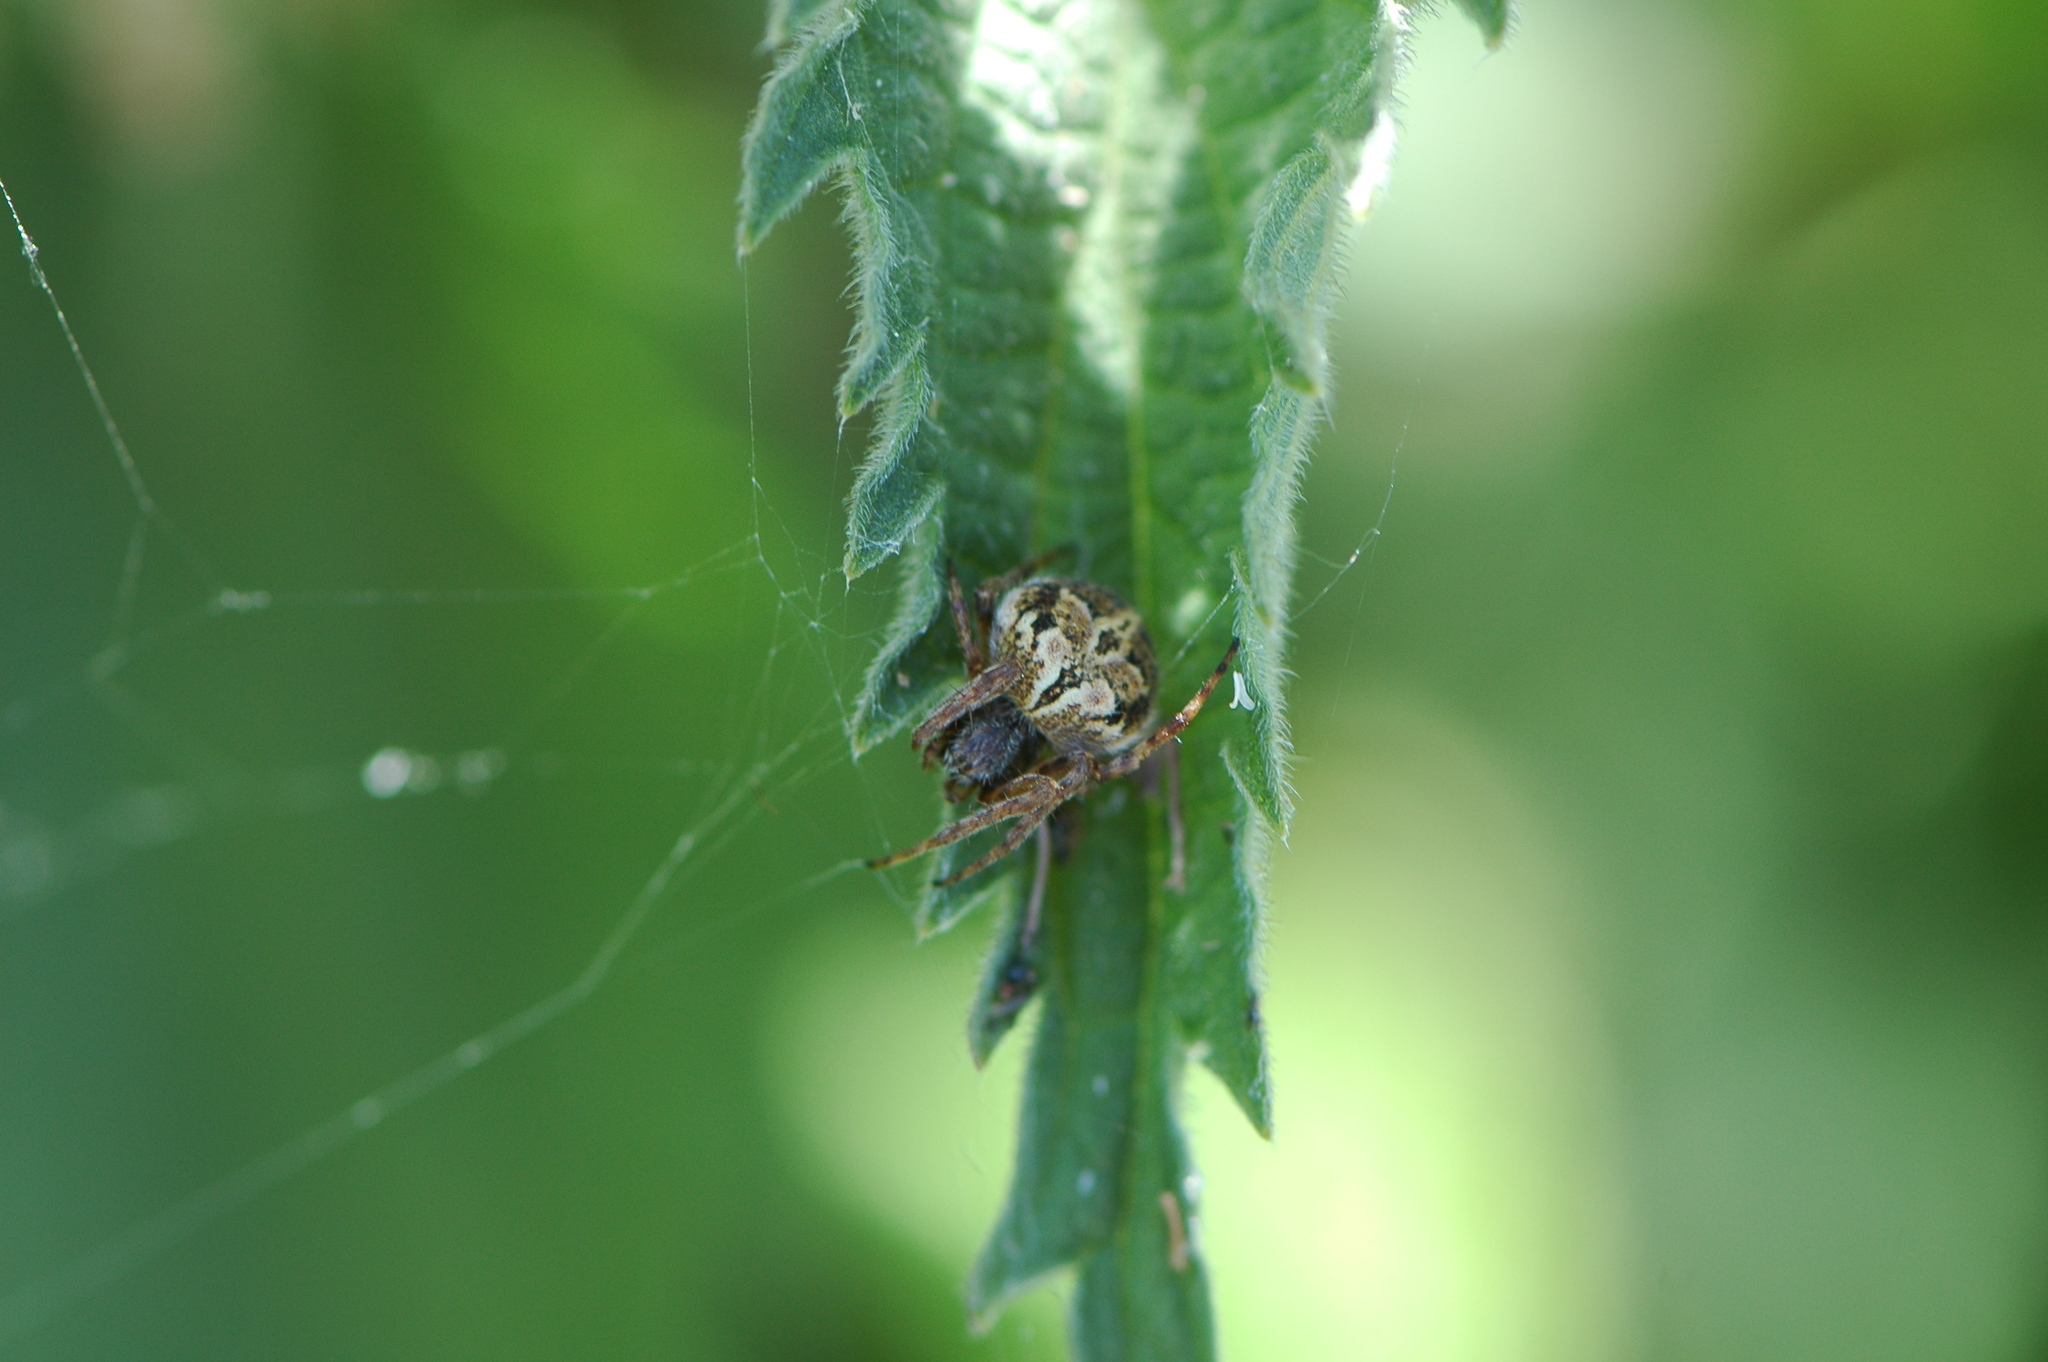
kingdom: Animalia
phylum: Arthropoda
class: Arachnida
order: Araneae
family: Araneidae
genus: Agalenatea
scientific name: Agalenatea redii
